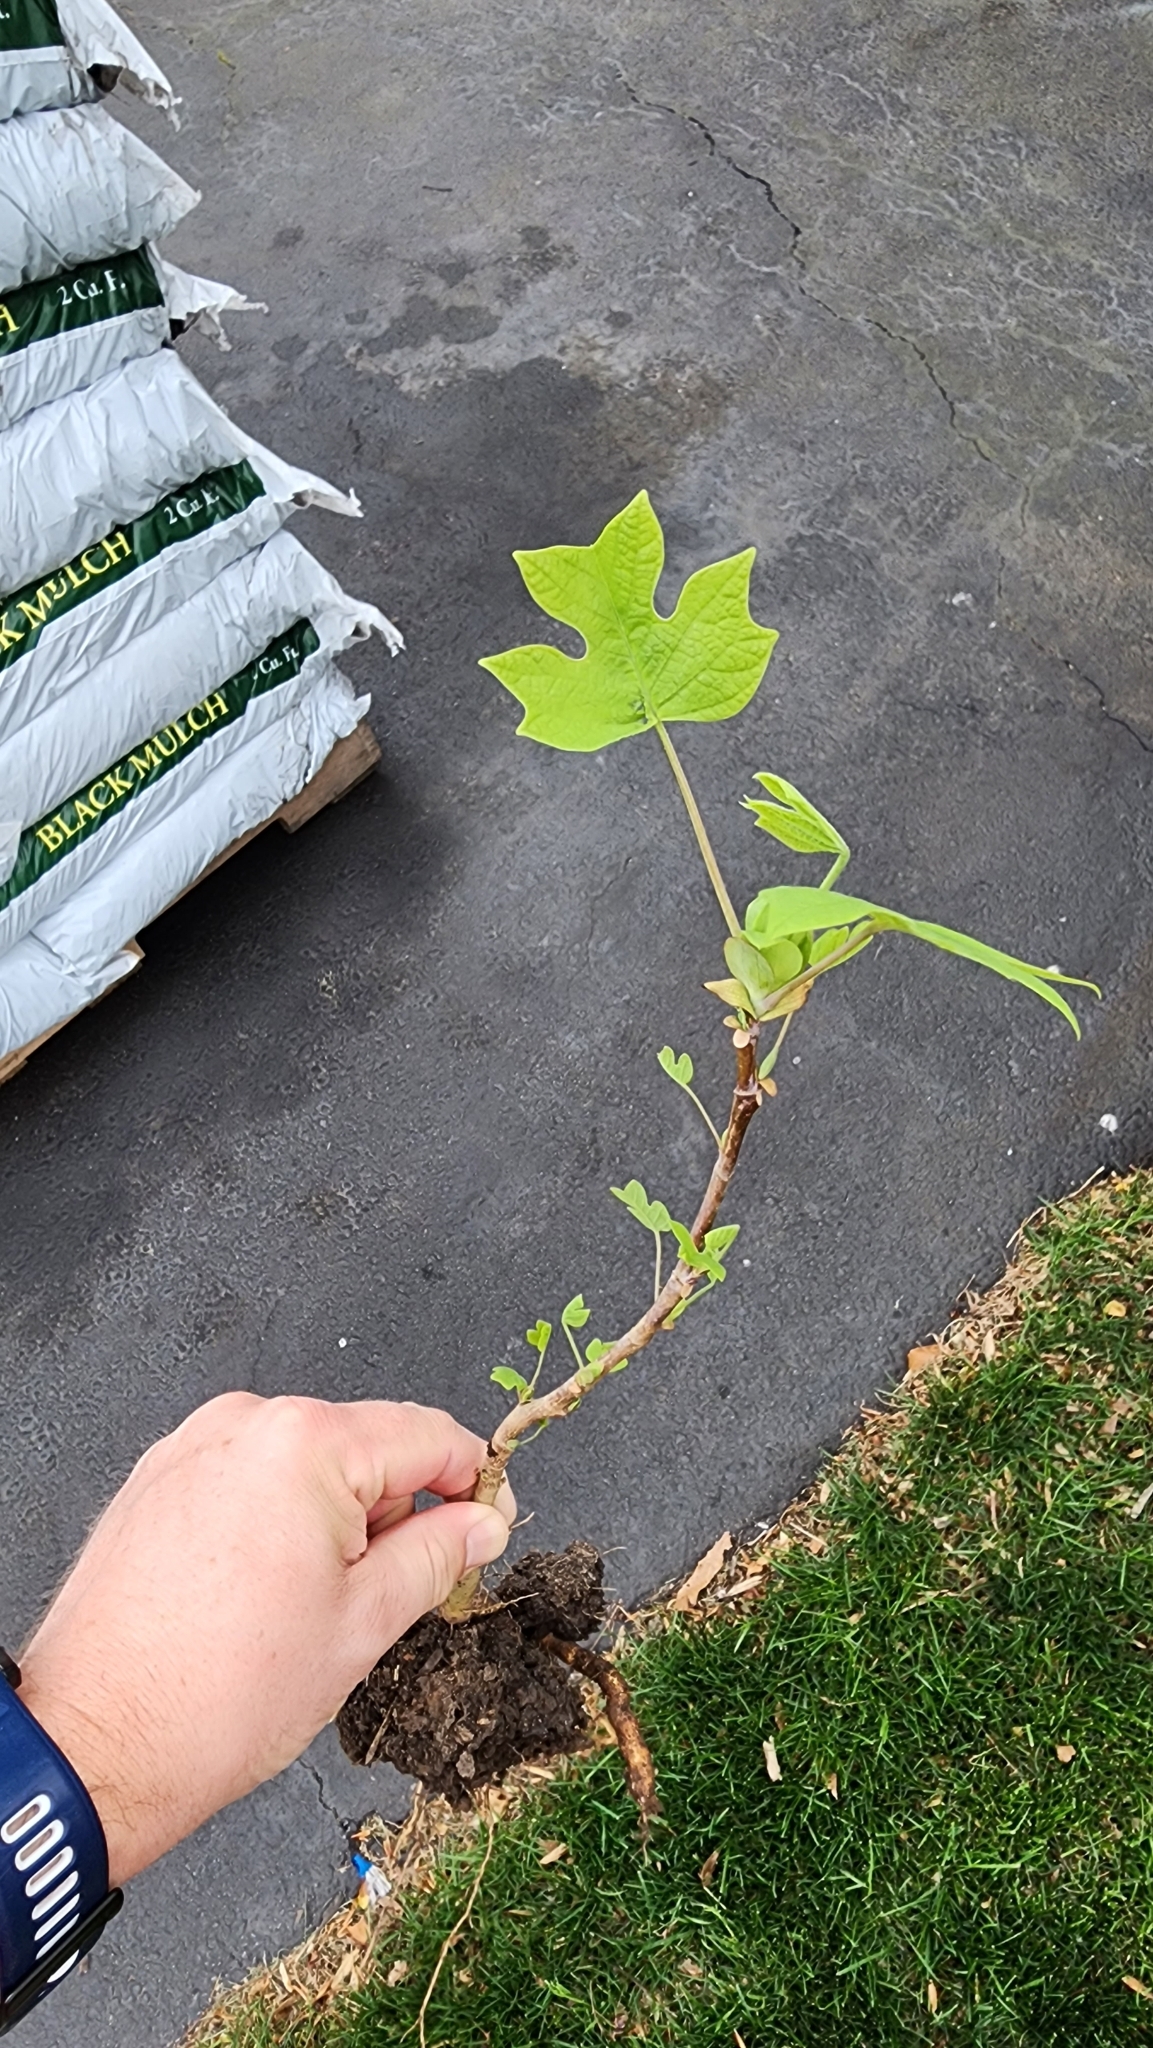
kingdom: Plantae
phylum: Tracheophyta
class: Magnoliopsida
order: Magnoliales
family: Magnoliaceae
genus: Liriodendron
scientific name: Liriodendron tulipifera
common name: Tulip tree
